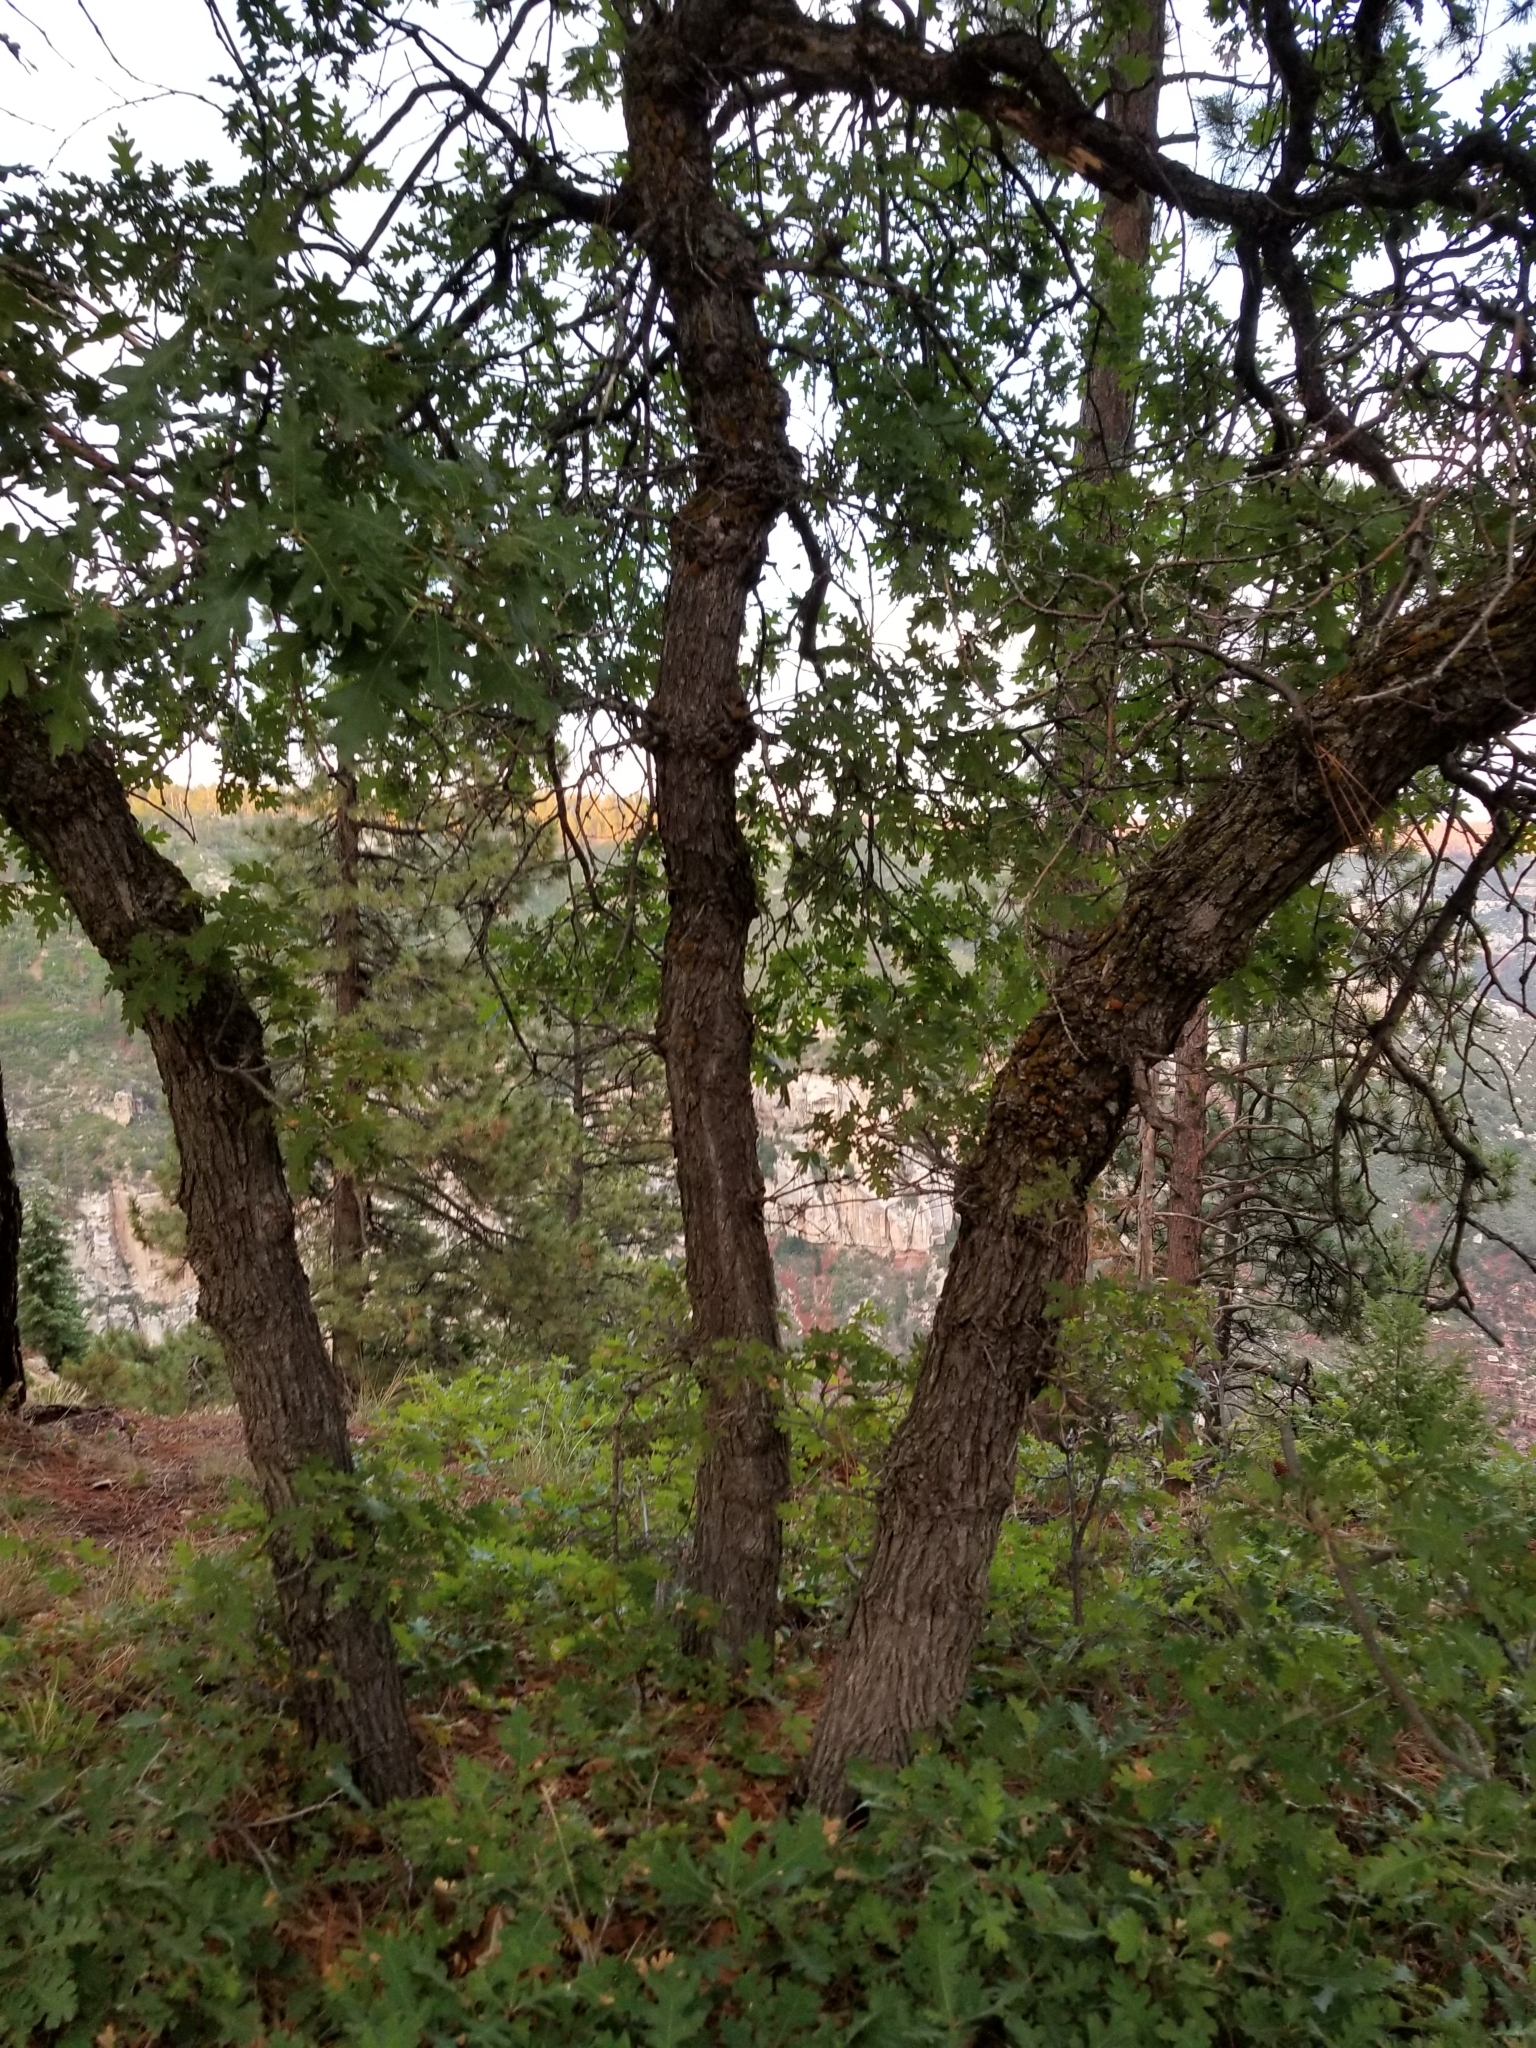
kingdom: Plantae
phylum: Tracheophyta
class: Magnoliopsida
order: Fagales
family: Fagaceae
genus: Quercus
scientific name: Quercus gambelii
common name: Gambel oak
